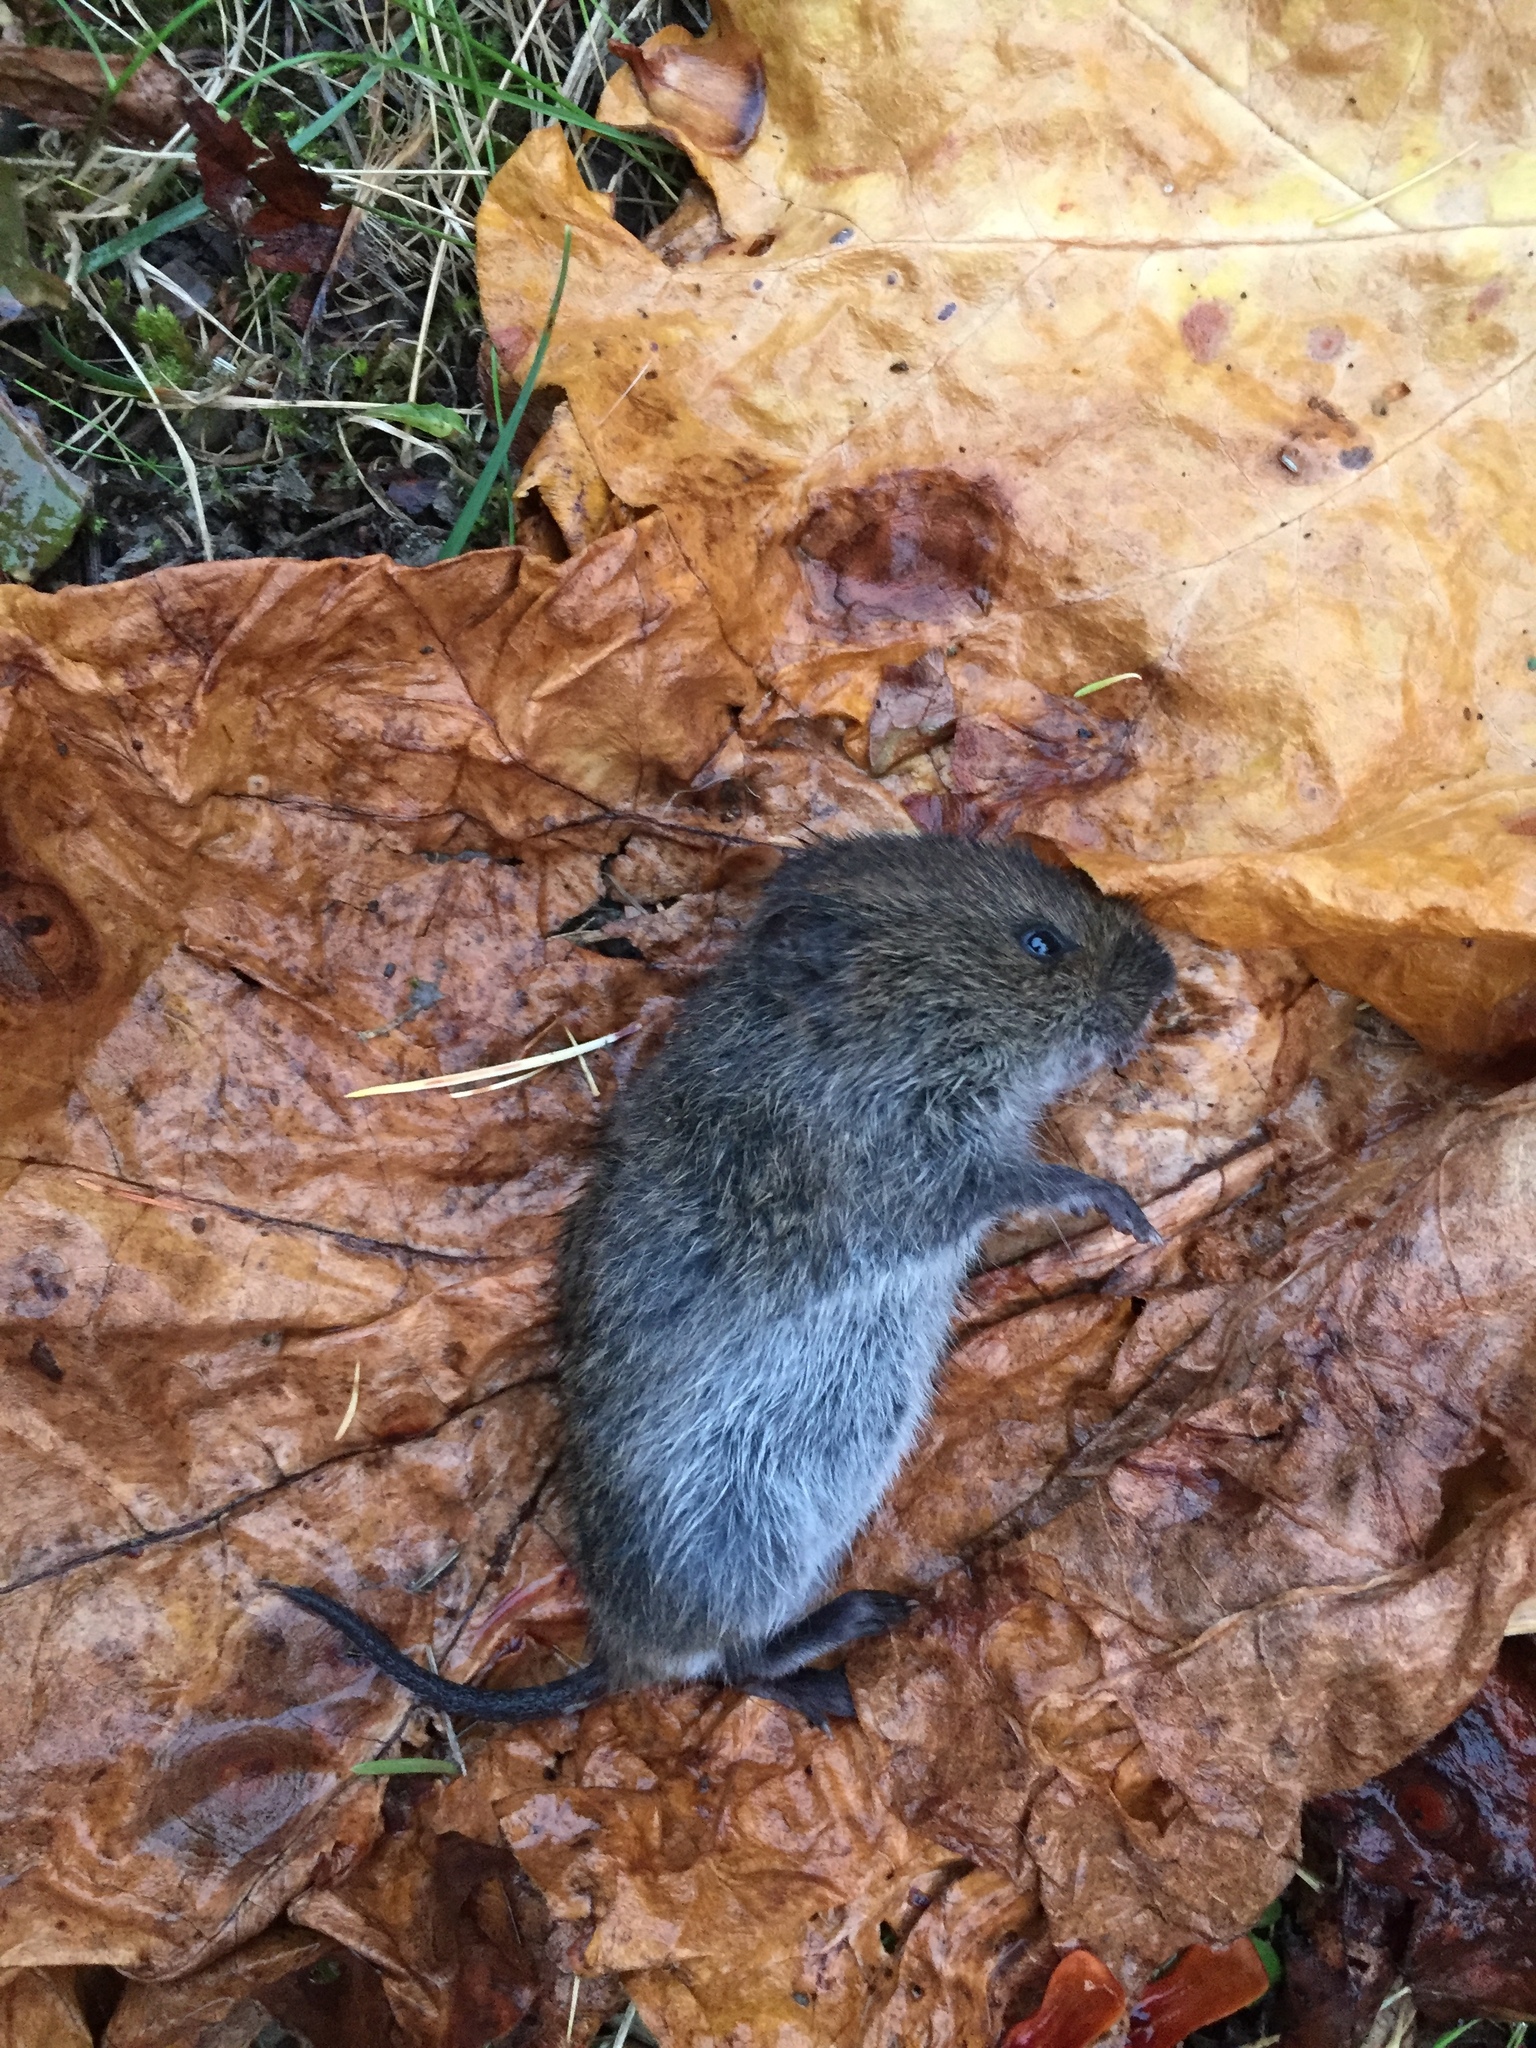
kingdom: Animalia
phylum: Chordata
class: Mammalia
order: Rodentia
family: Cricetidae
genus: Microtus
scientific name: Microtus pennsylvanicus
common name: Meadow vole
